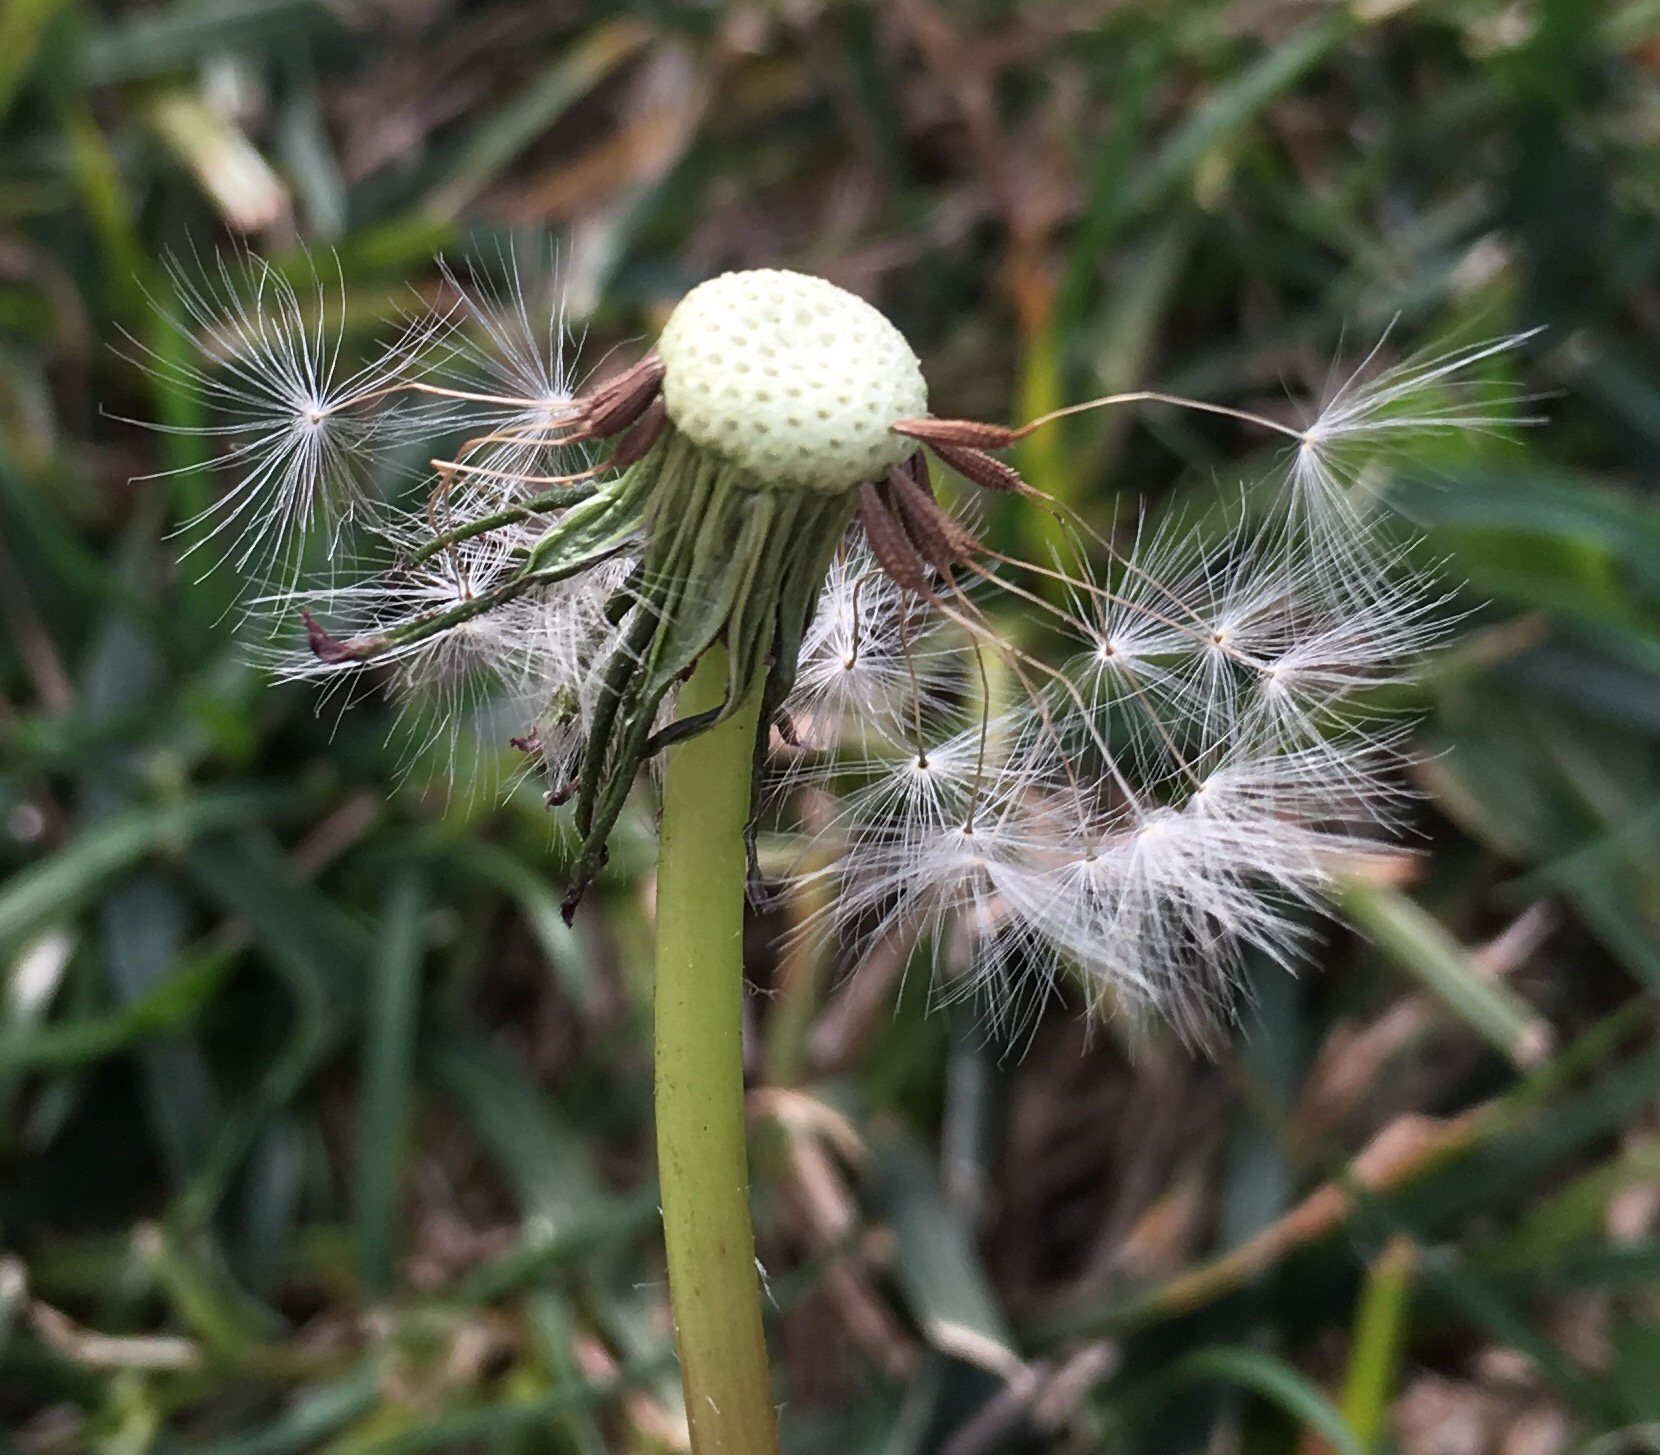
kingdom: Plantae
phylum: Tracheophyta
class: Magnoliopsida
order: Asterales
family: Asteraceae
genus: Taraxacum
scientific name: Taraxacum officinale
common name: Common dandelion
